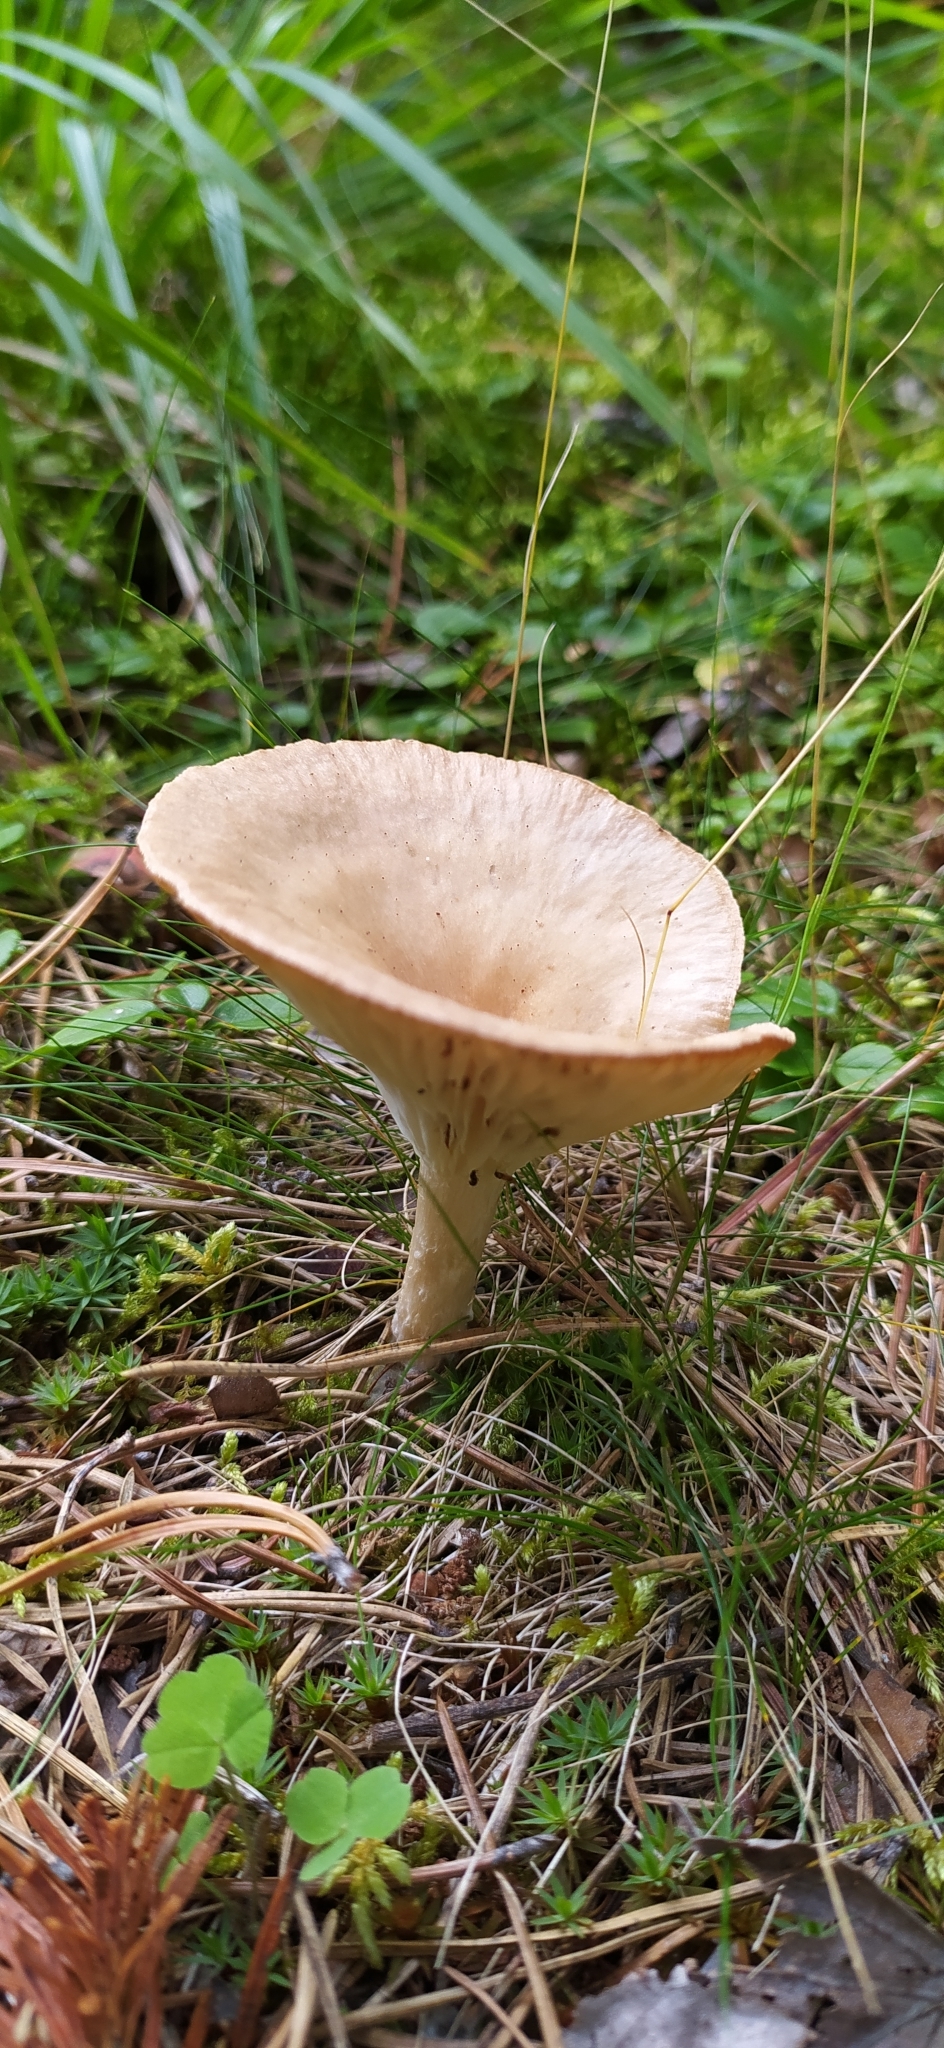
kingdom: Fungi
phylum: Basidiomycota
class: Agaricomycetes
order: Agaricales
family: Tricholomataceae
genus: Infundibulicybe
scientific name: Infundibulicybe gibba
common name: Common funnel
